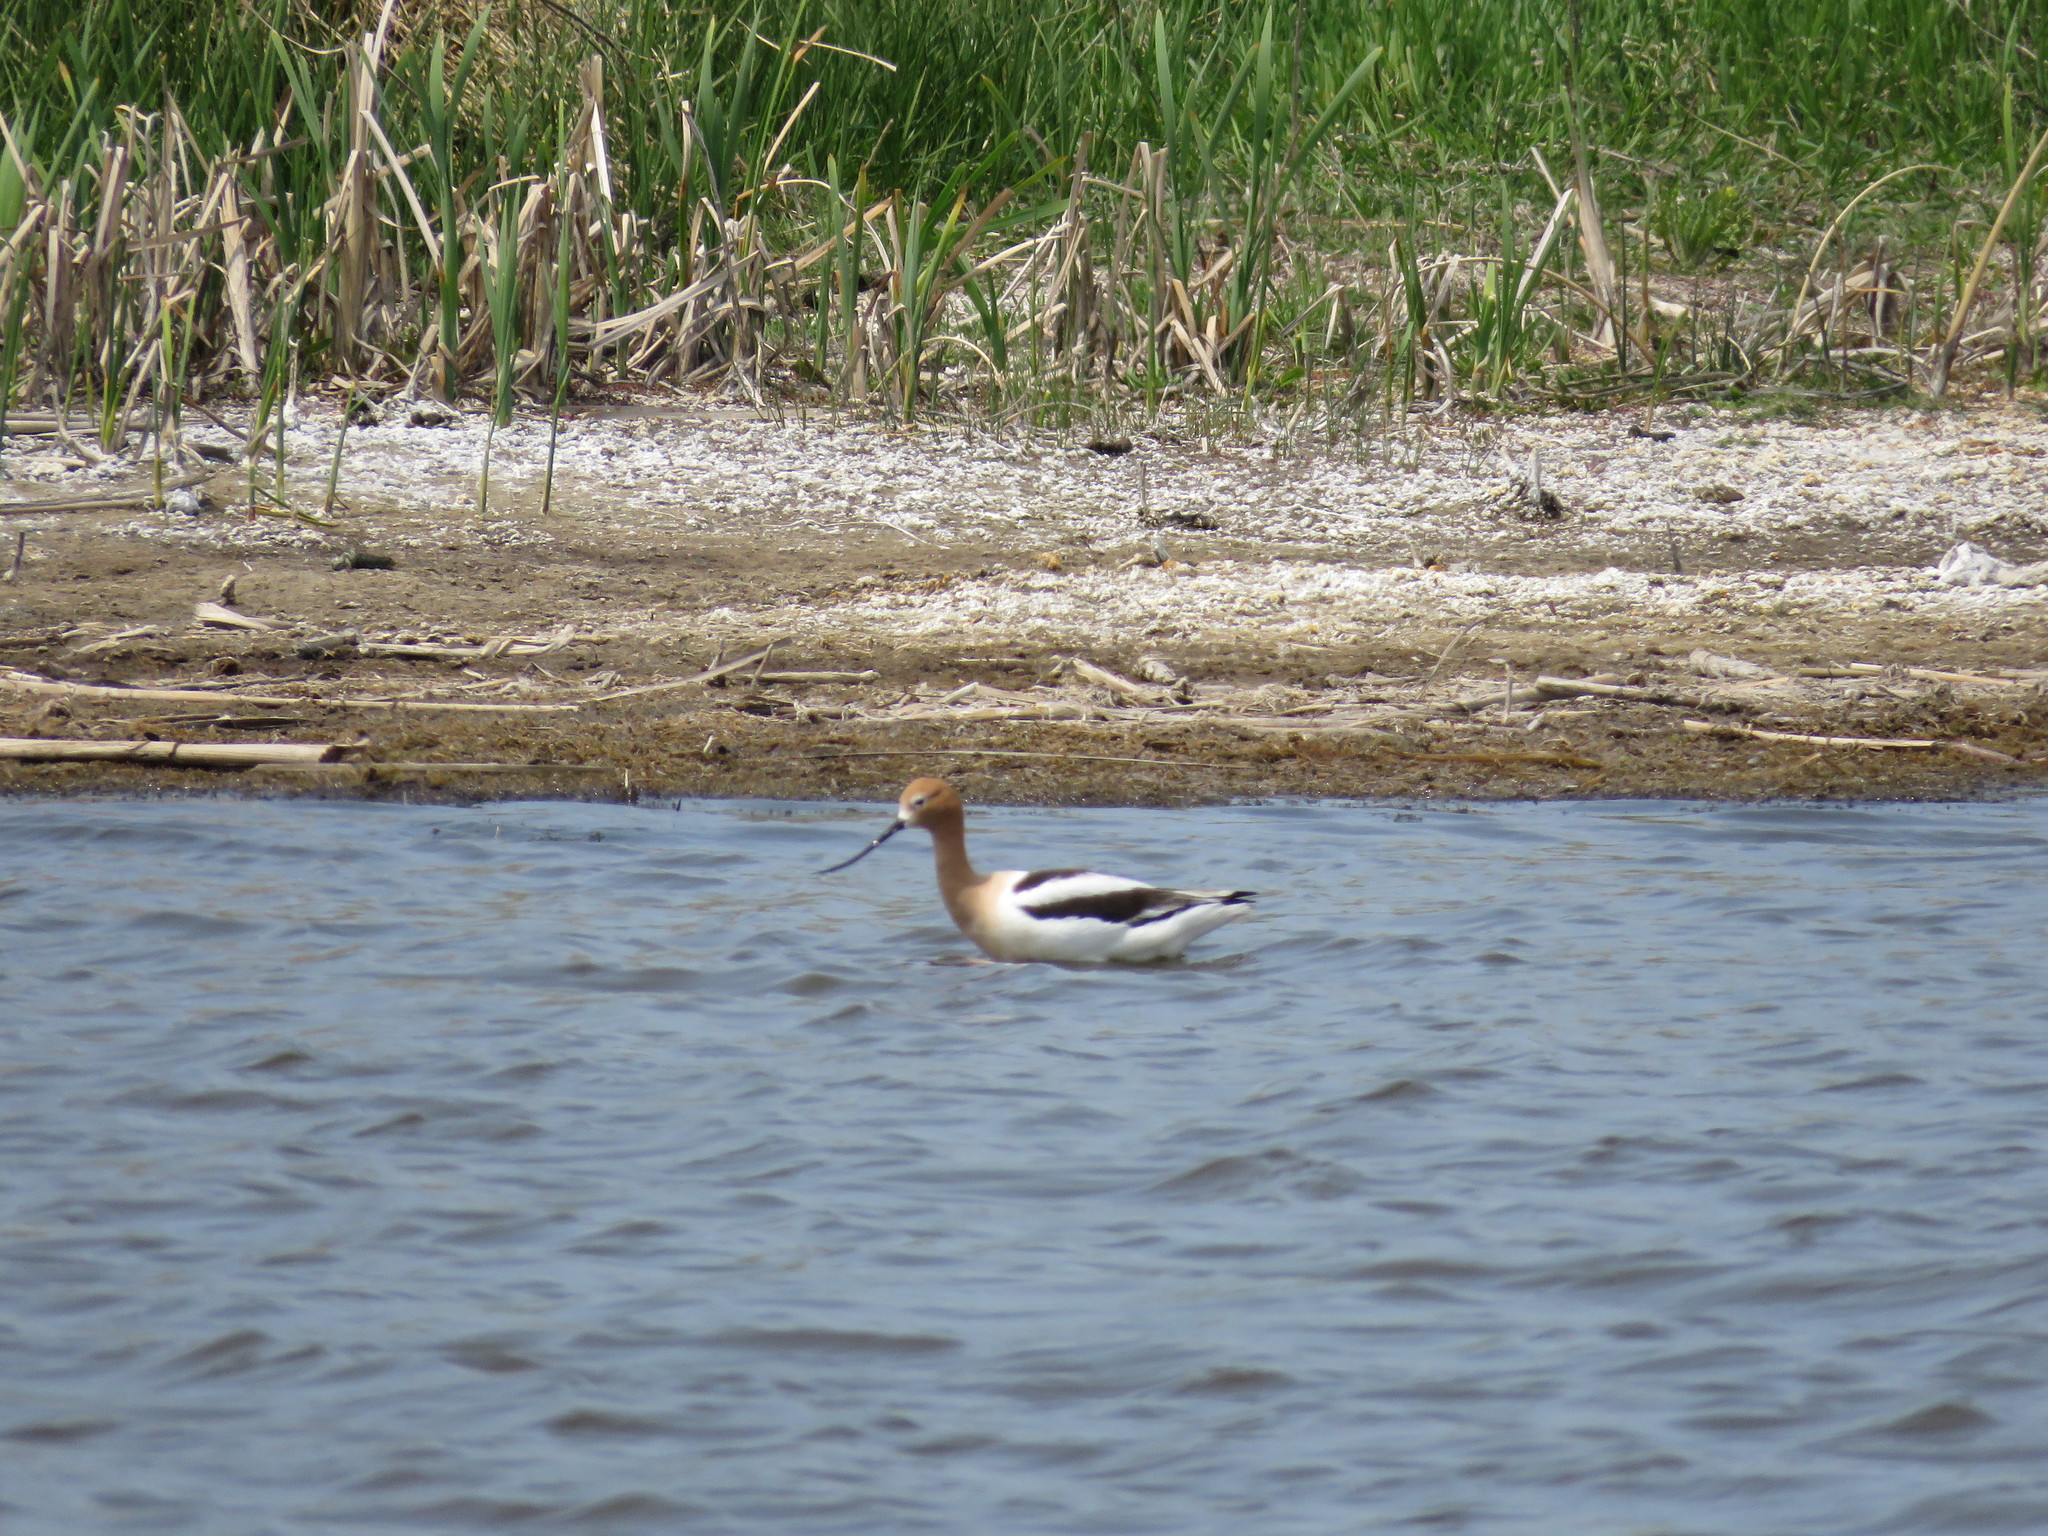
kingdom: Animalia
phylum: Chordata
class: Aves
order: Charadriiformes
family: Recurvirostridae
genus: Recurvirostra
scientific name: Recurvirostra americana
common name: American avocet
